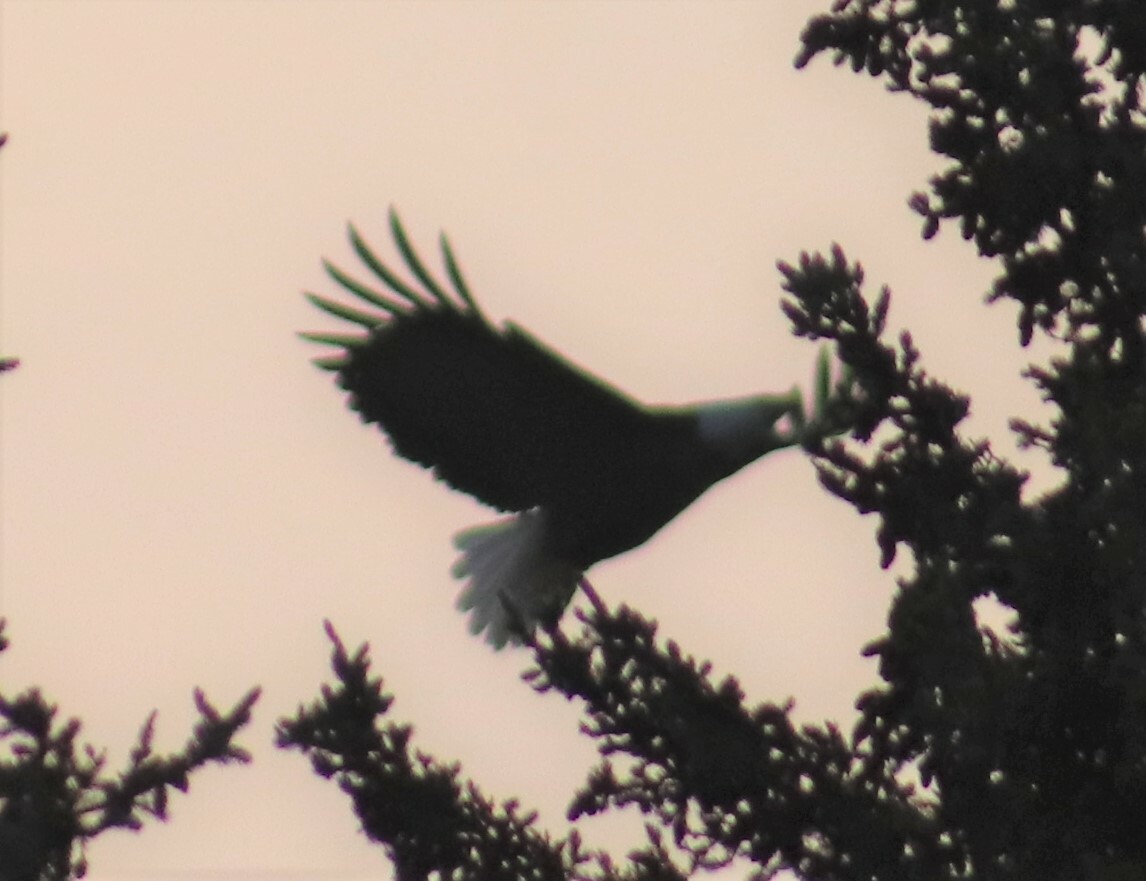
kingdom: Animalia
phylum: Chordata
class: Aves
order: Accipitriformes
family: Accipitridae
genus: Haliaeetus
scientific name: Haliaeetus leucocephalus
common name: Bald eagle
